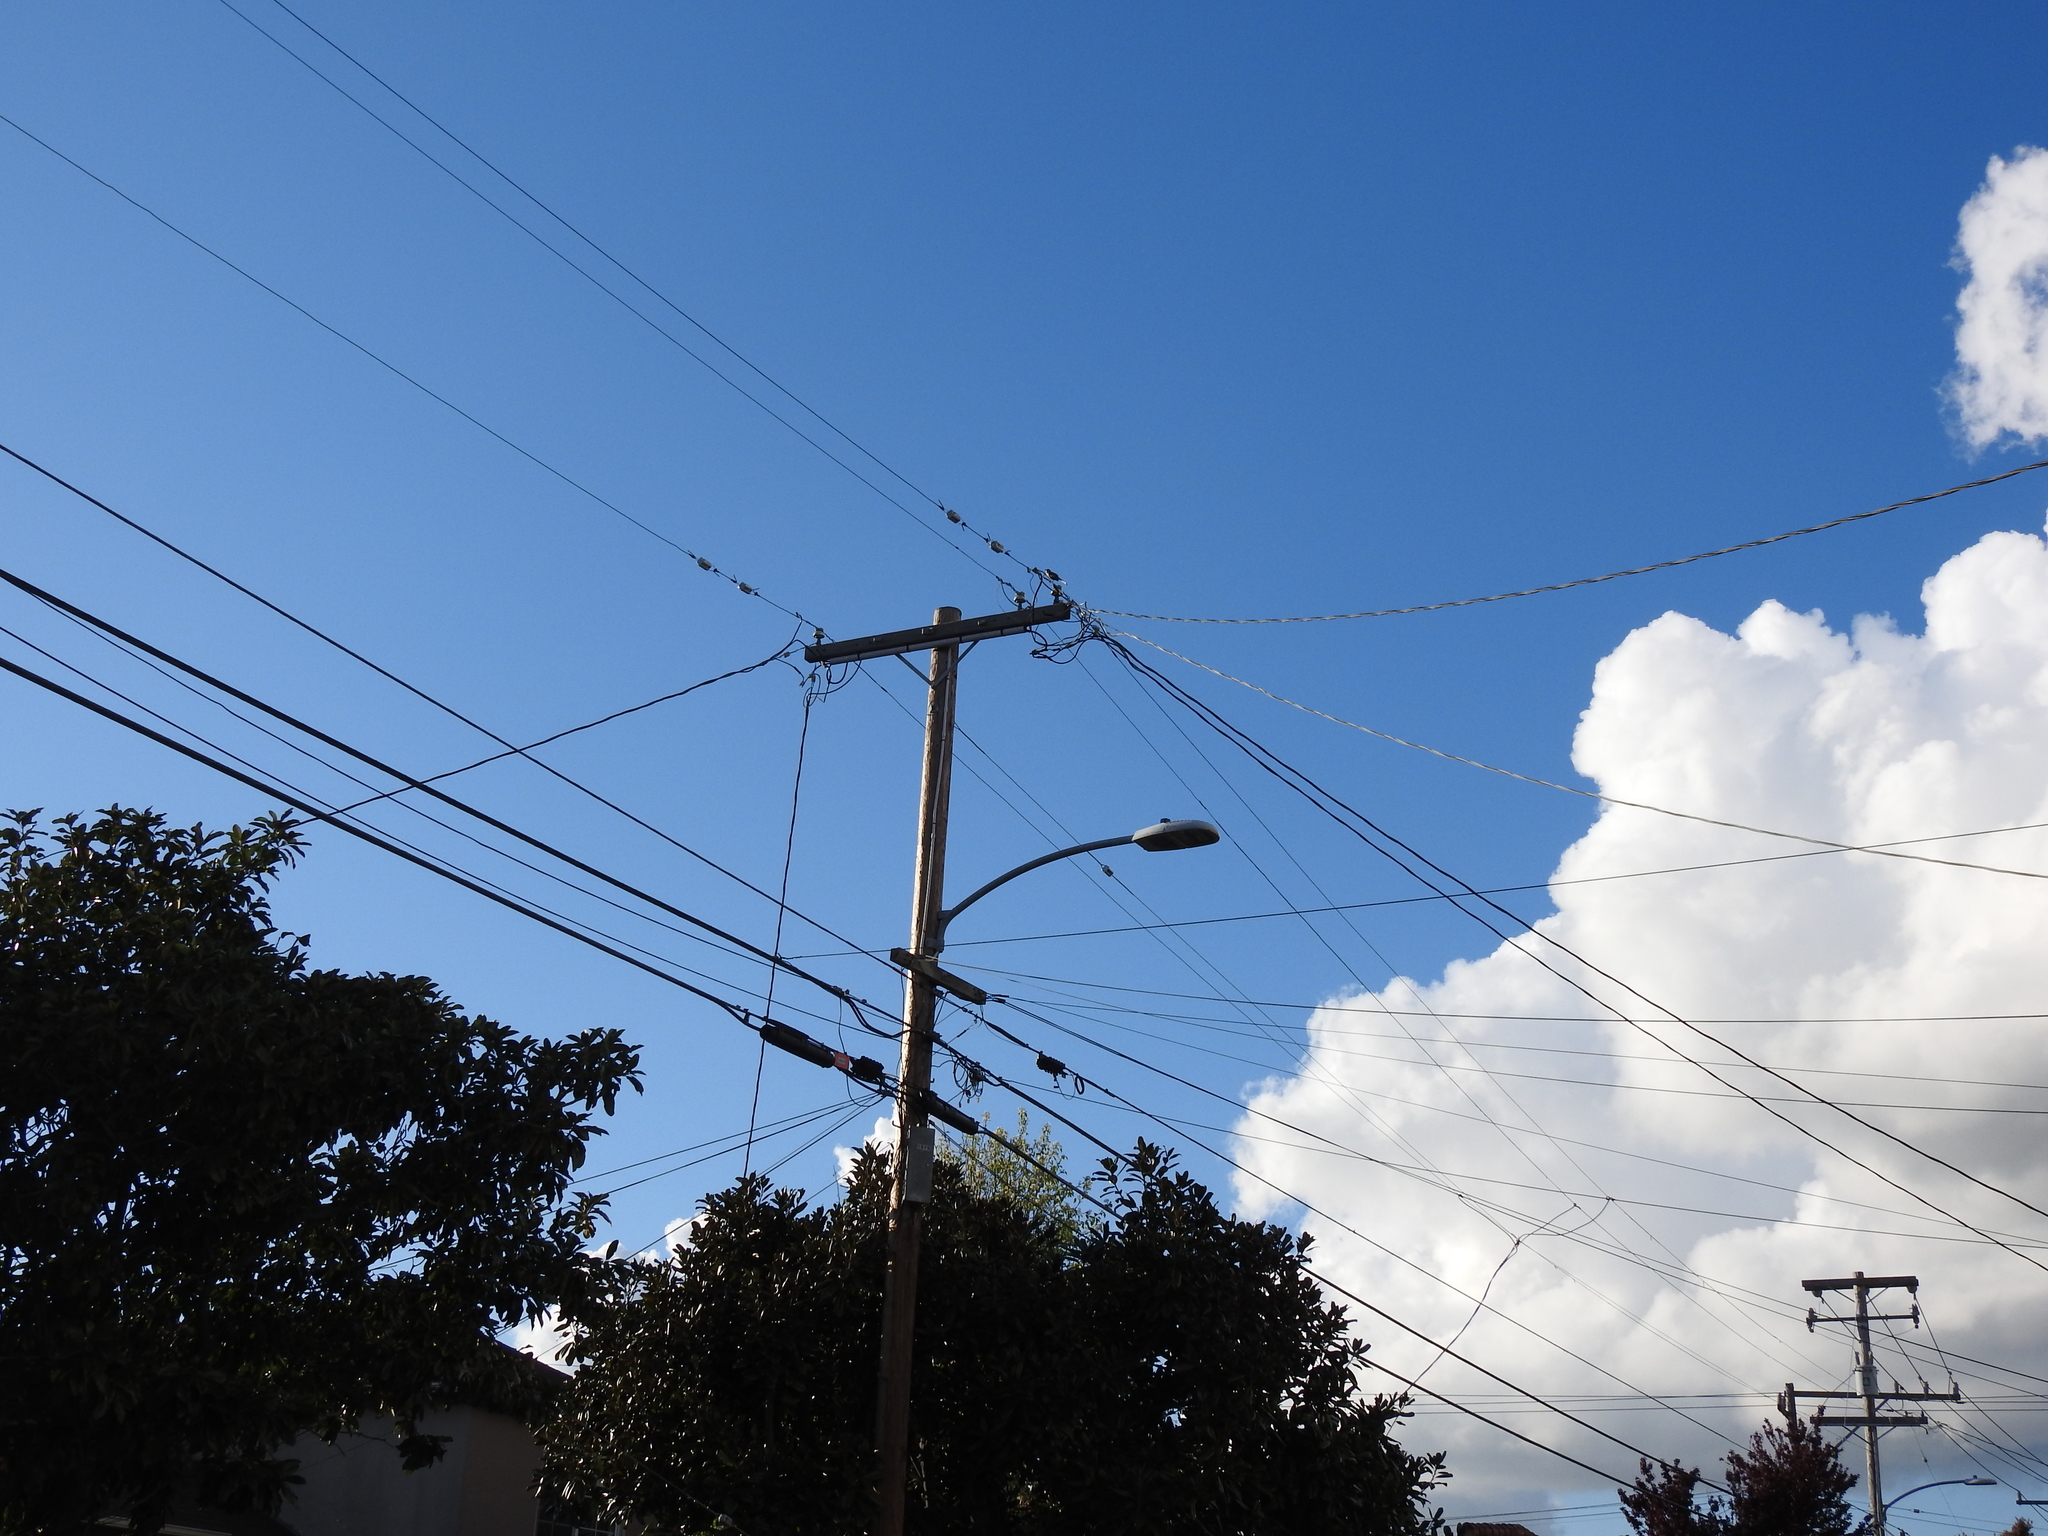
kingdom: Animalia
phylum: Chordata
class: Aves
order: Passeriformes
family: Mimidae
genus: Mimus
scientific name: Mimus polyglottos
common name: Northern mockingbird
